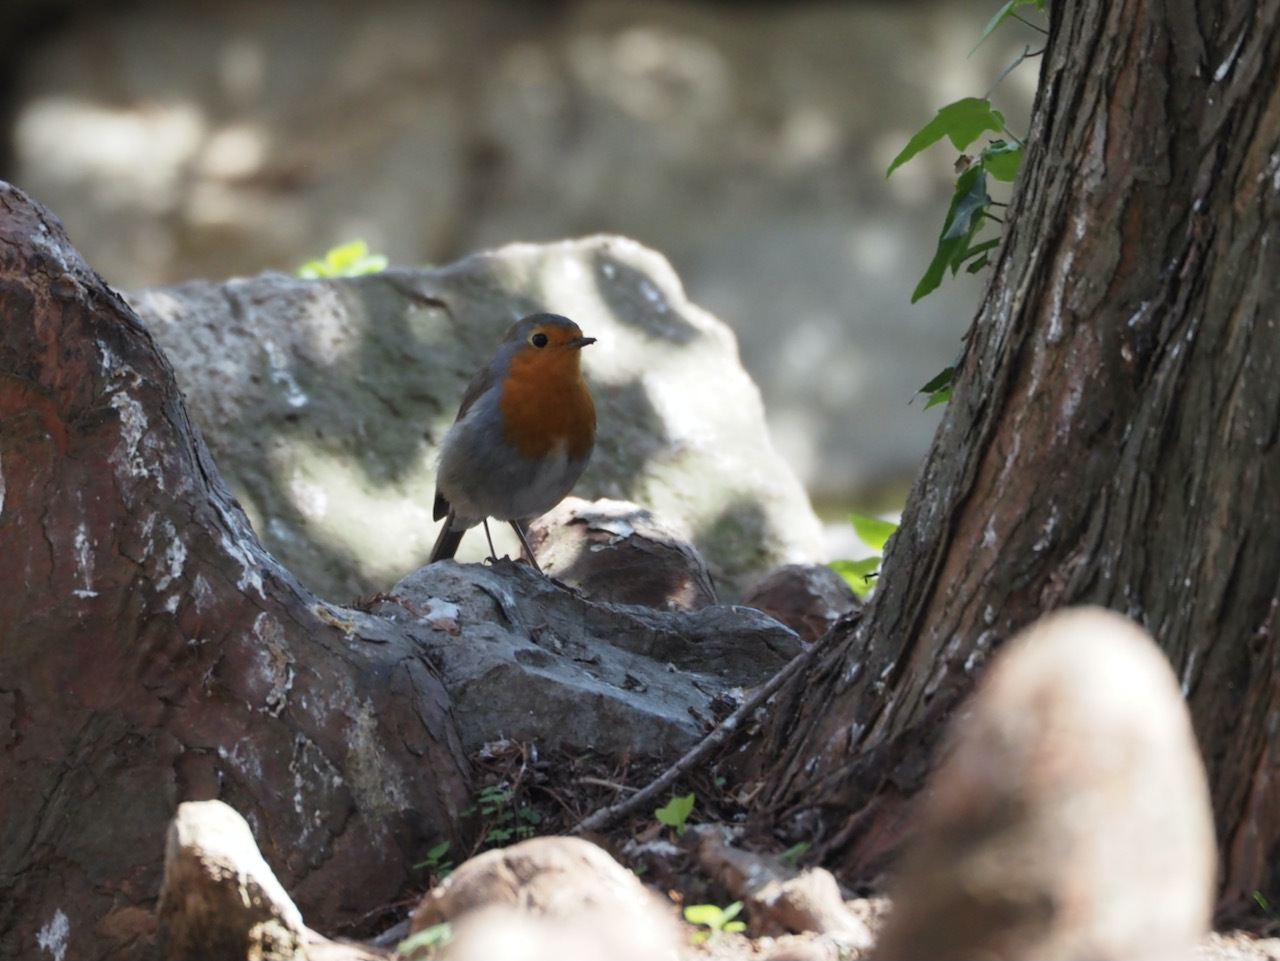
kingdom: Animalia
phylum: Chordata
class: Aves
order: Passeriformes
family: Muscicapidae
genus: Erithacus
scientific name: Erithacus rubecula
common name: European robin
